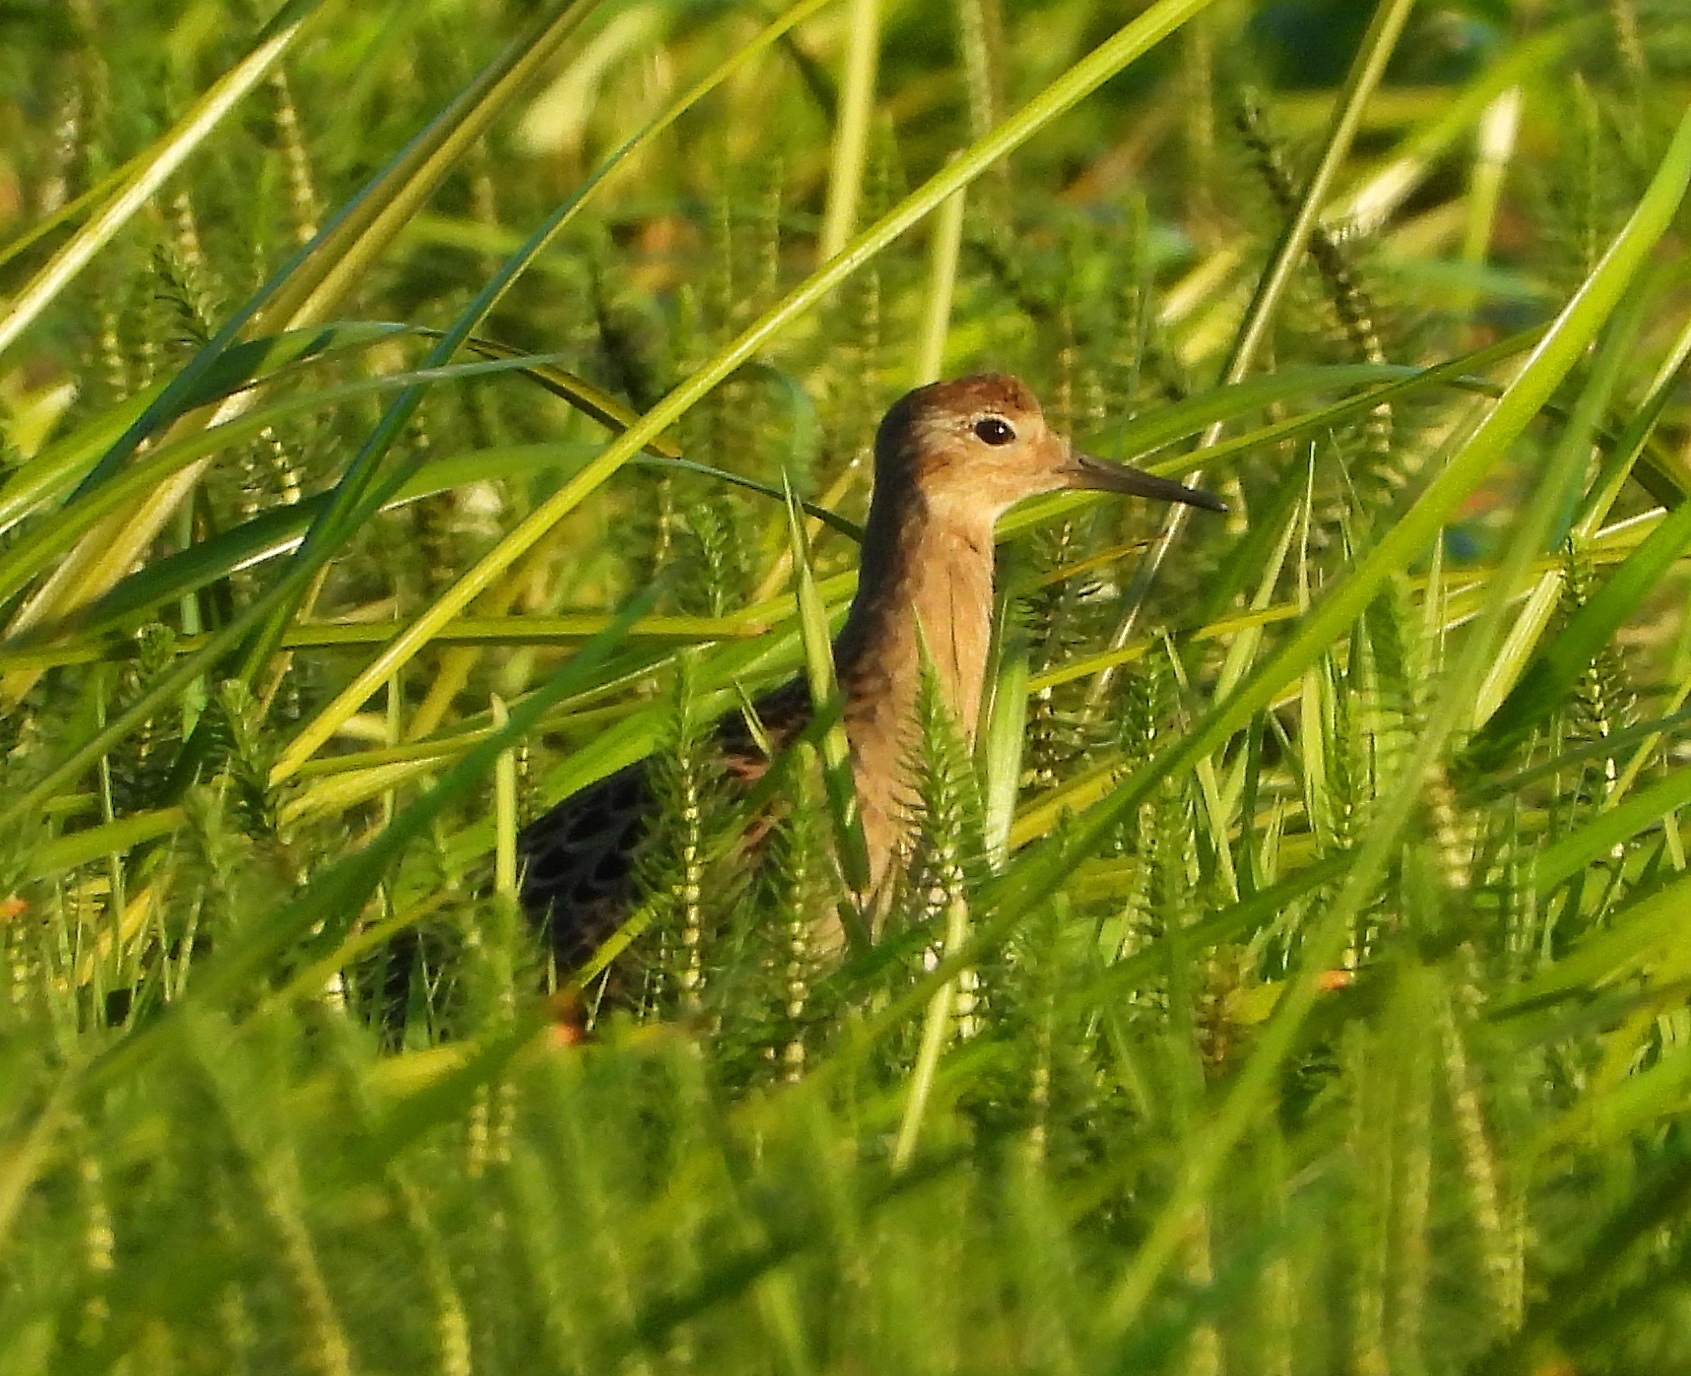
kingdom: Animalia
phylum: Chordata
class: Aves
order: Charadriiformes
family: Scolopacidae
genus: Calidris
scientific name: Calidris pugnax
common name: Ruff
